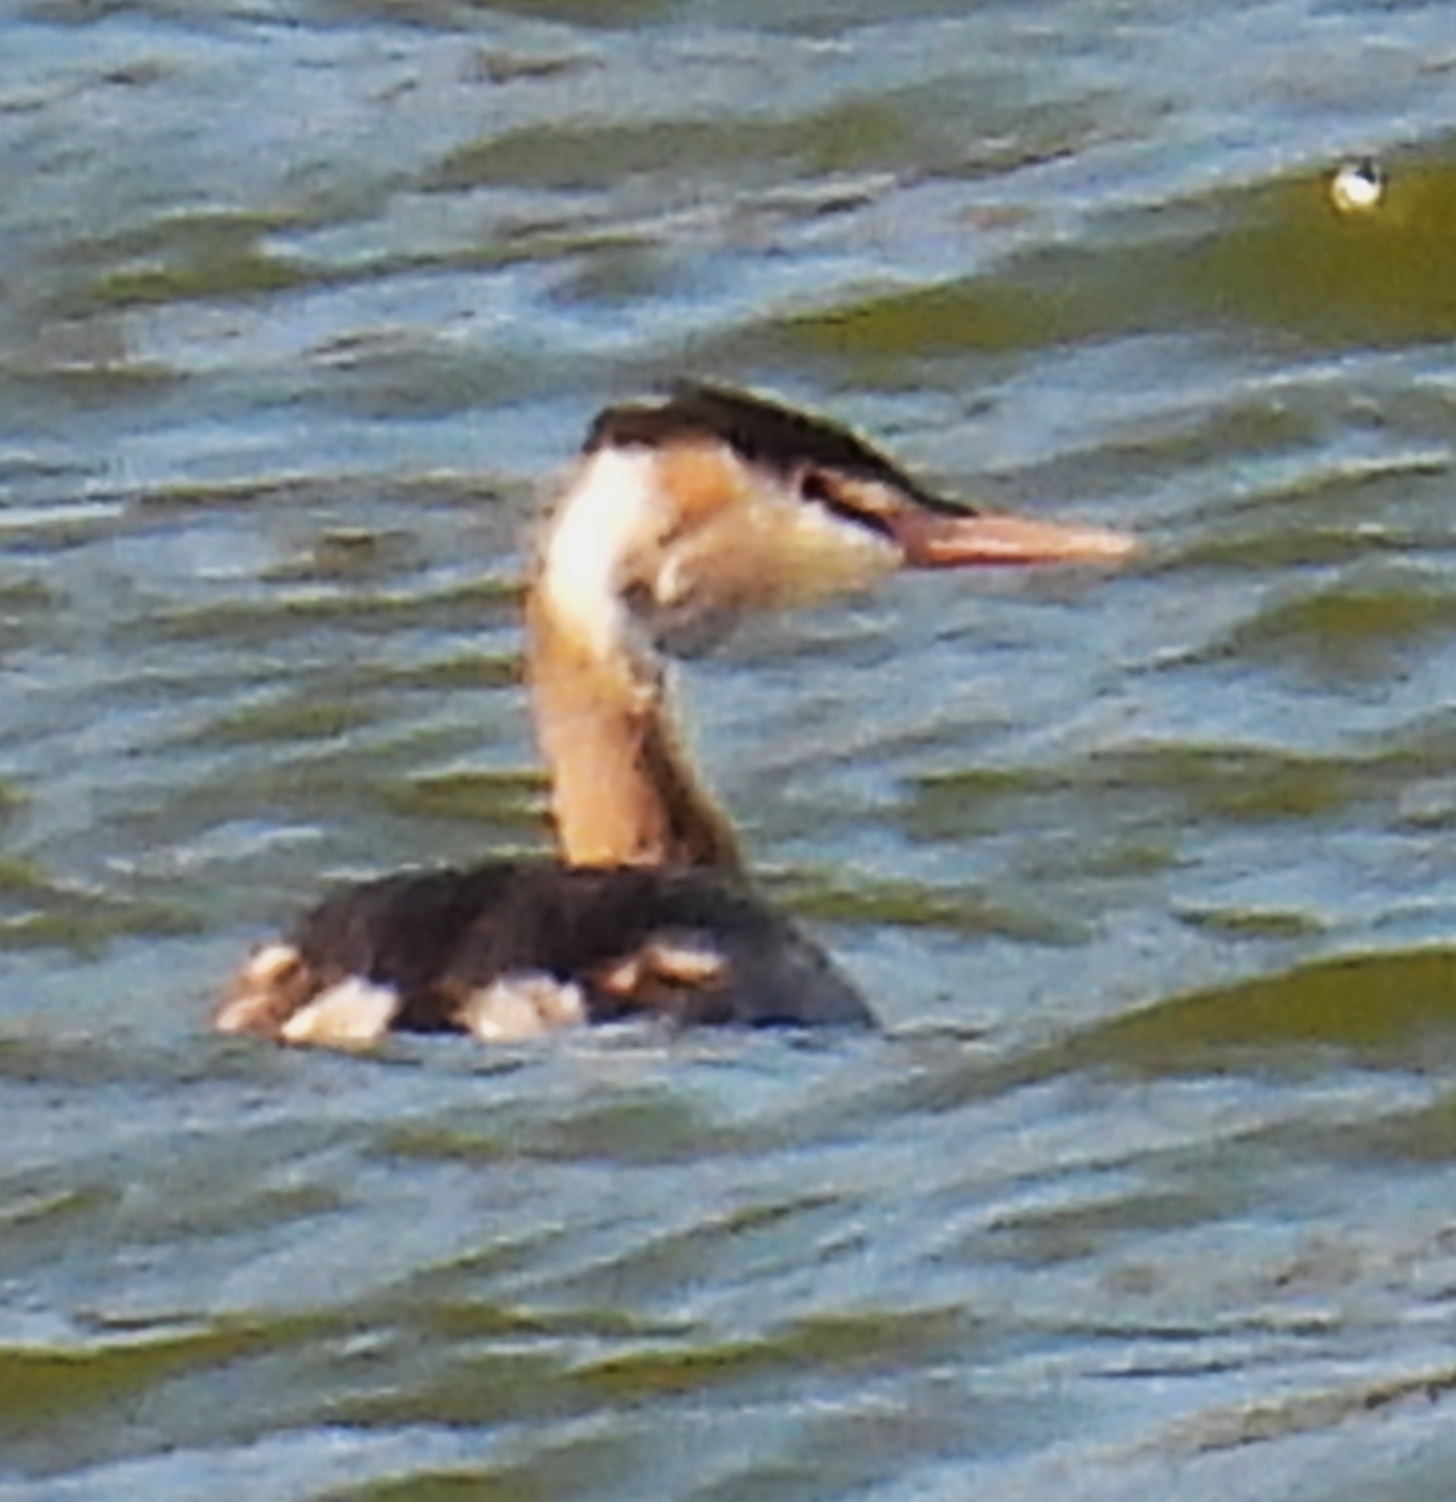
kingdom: Animalia
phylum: Chordata
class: Aves
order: Podicipediformes
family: Podicipedidae
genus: Podiceps
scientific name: Podiceps cristatus
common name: Great crested grebe
